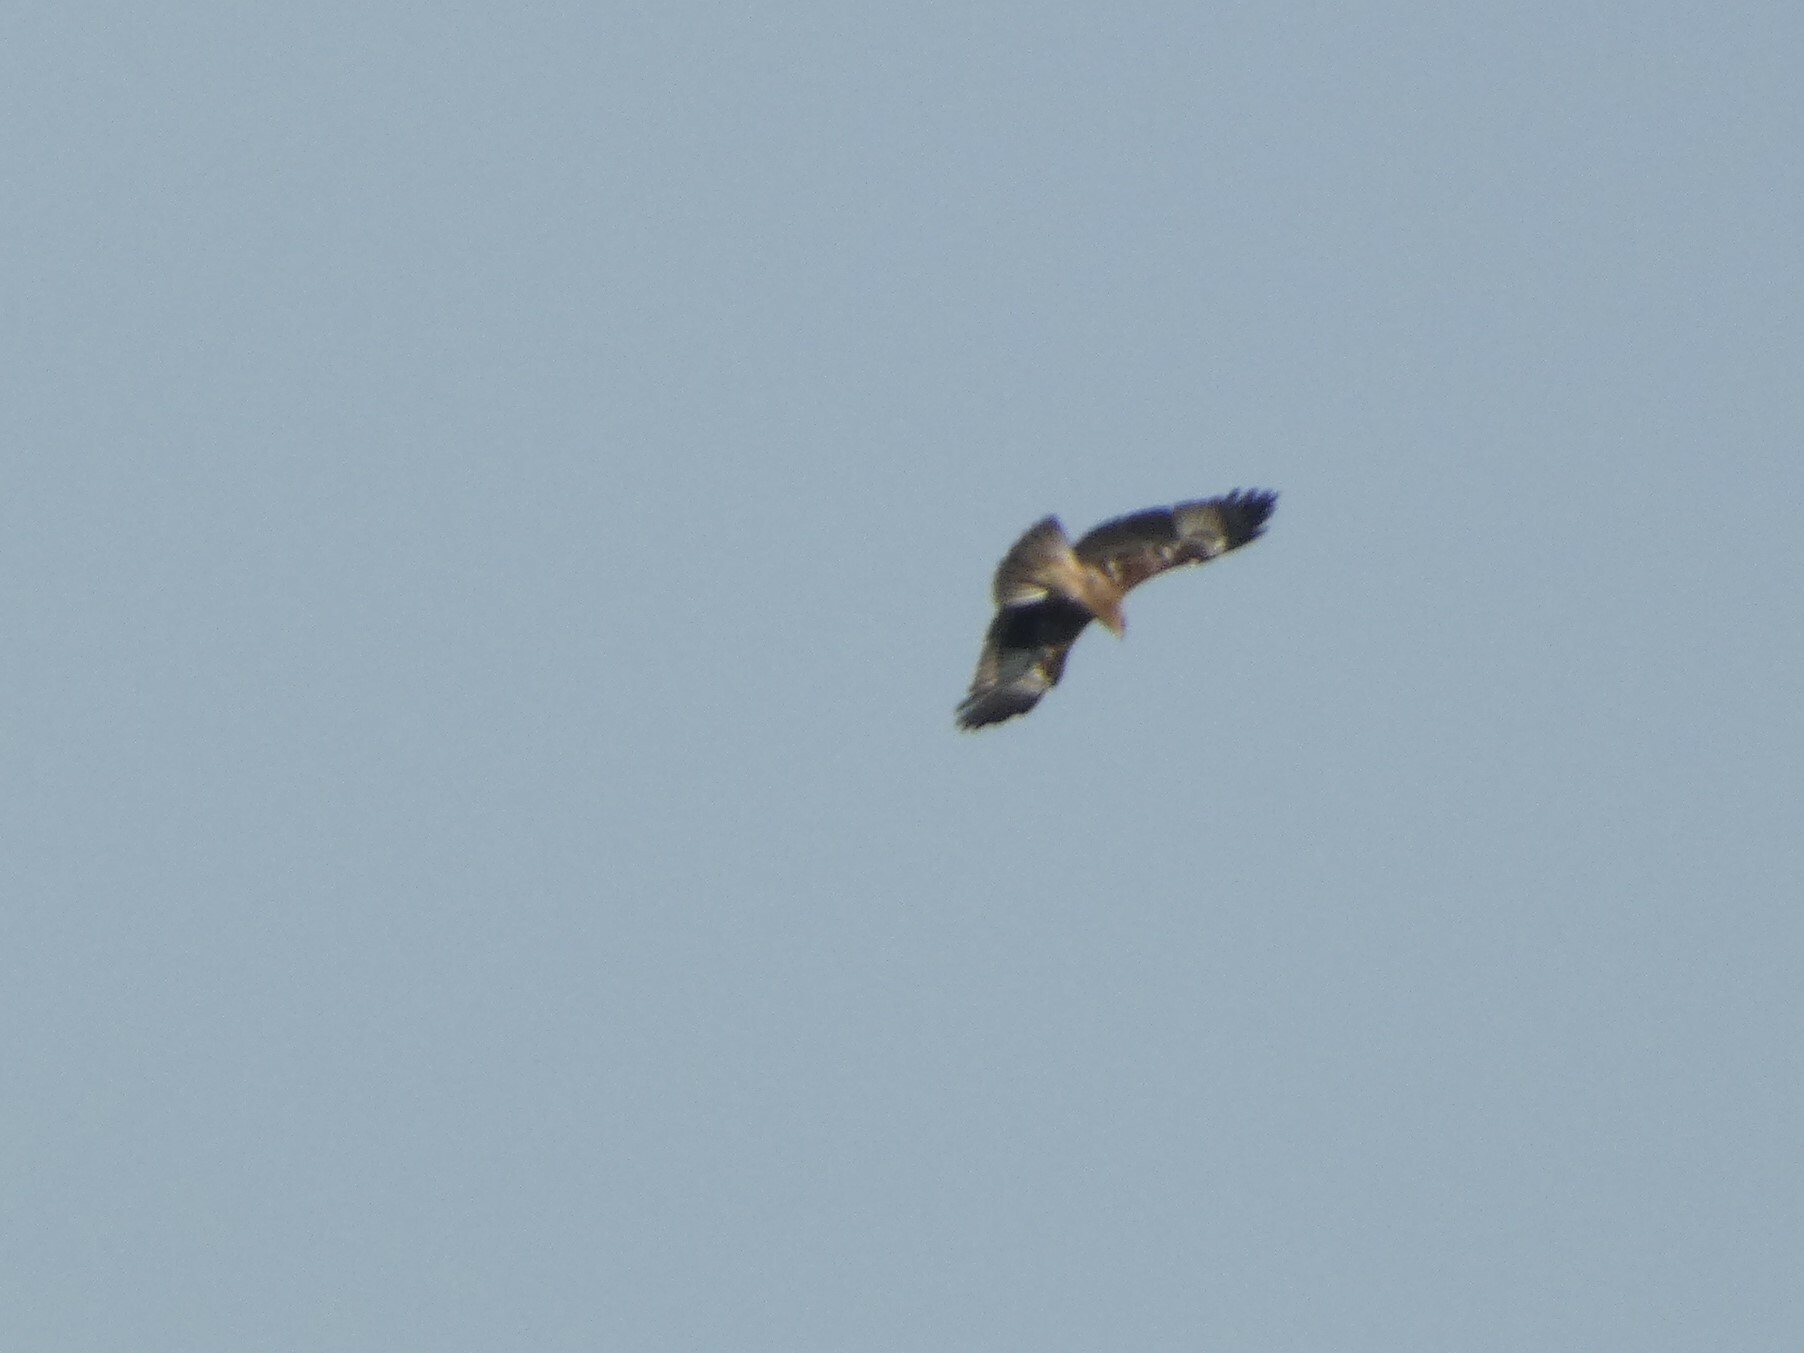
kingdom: Animalia
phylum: Chordata
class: Aves
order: Accipitriformes
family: Accipitridae
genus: Haliastur
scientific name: Haliastur indus
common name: Brahminy kite
